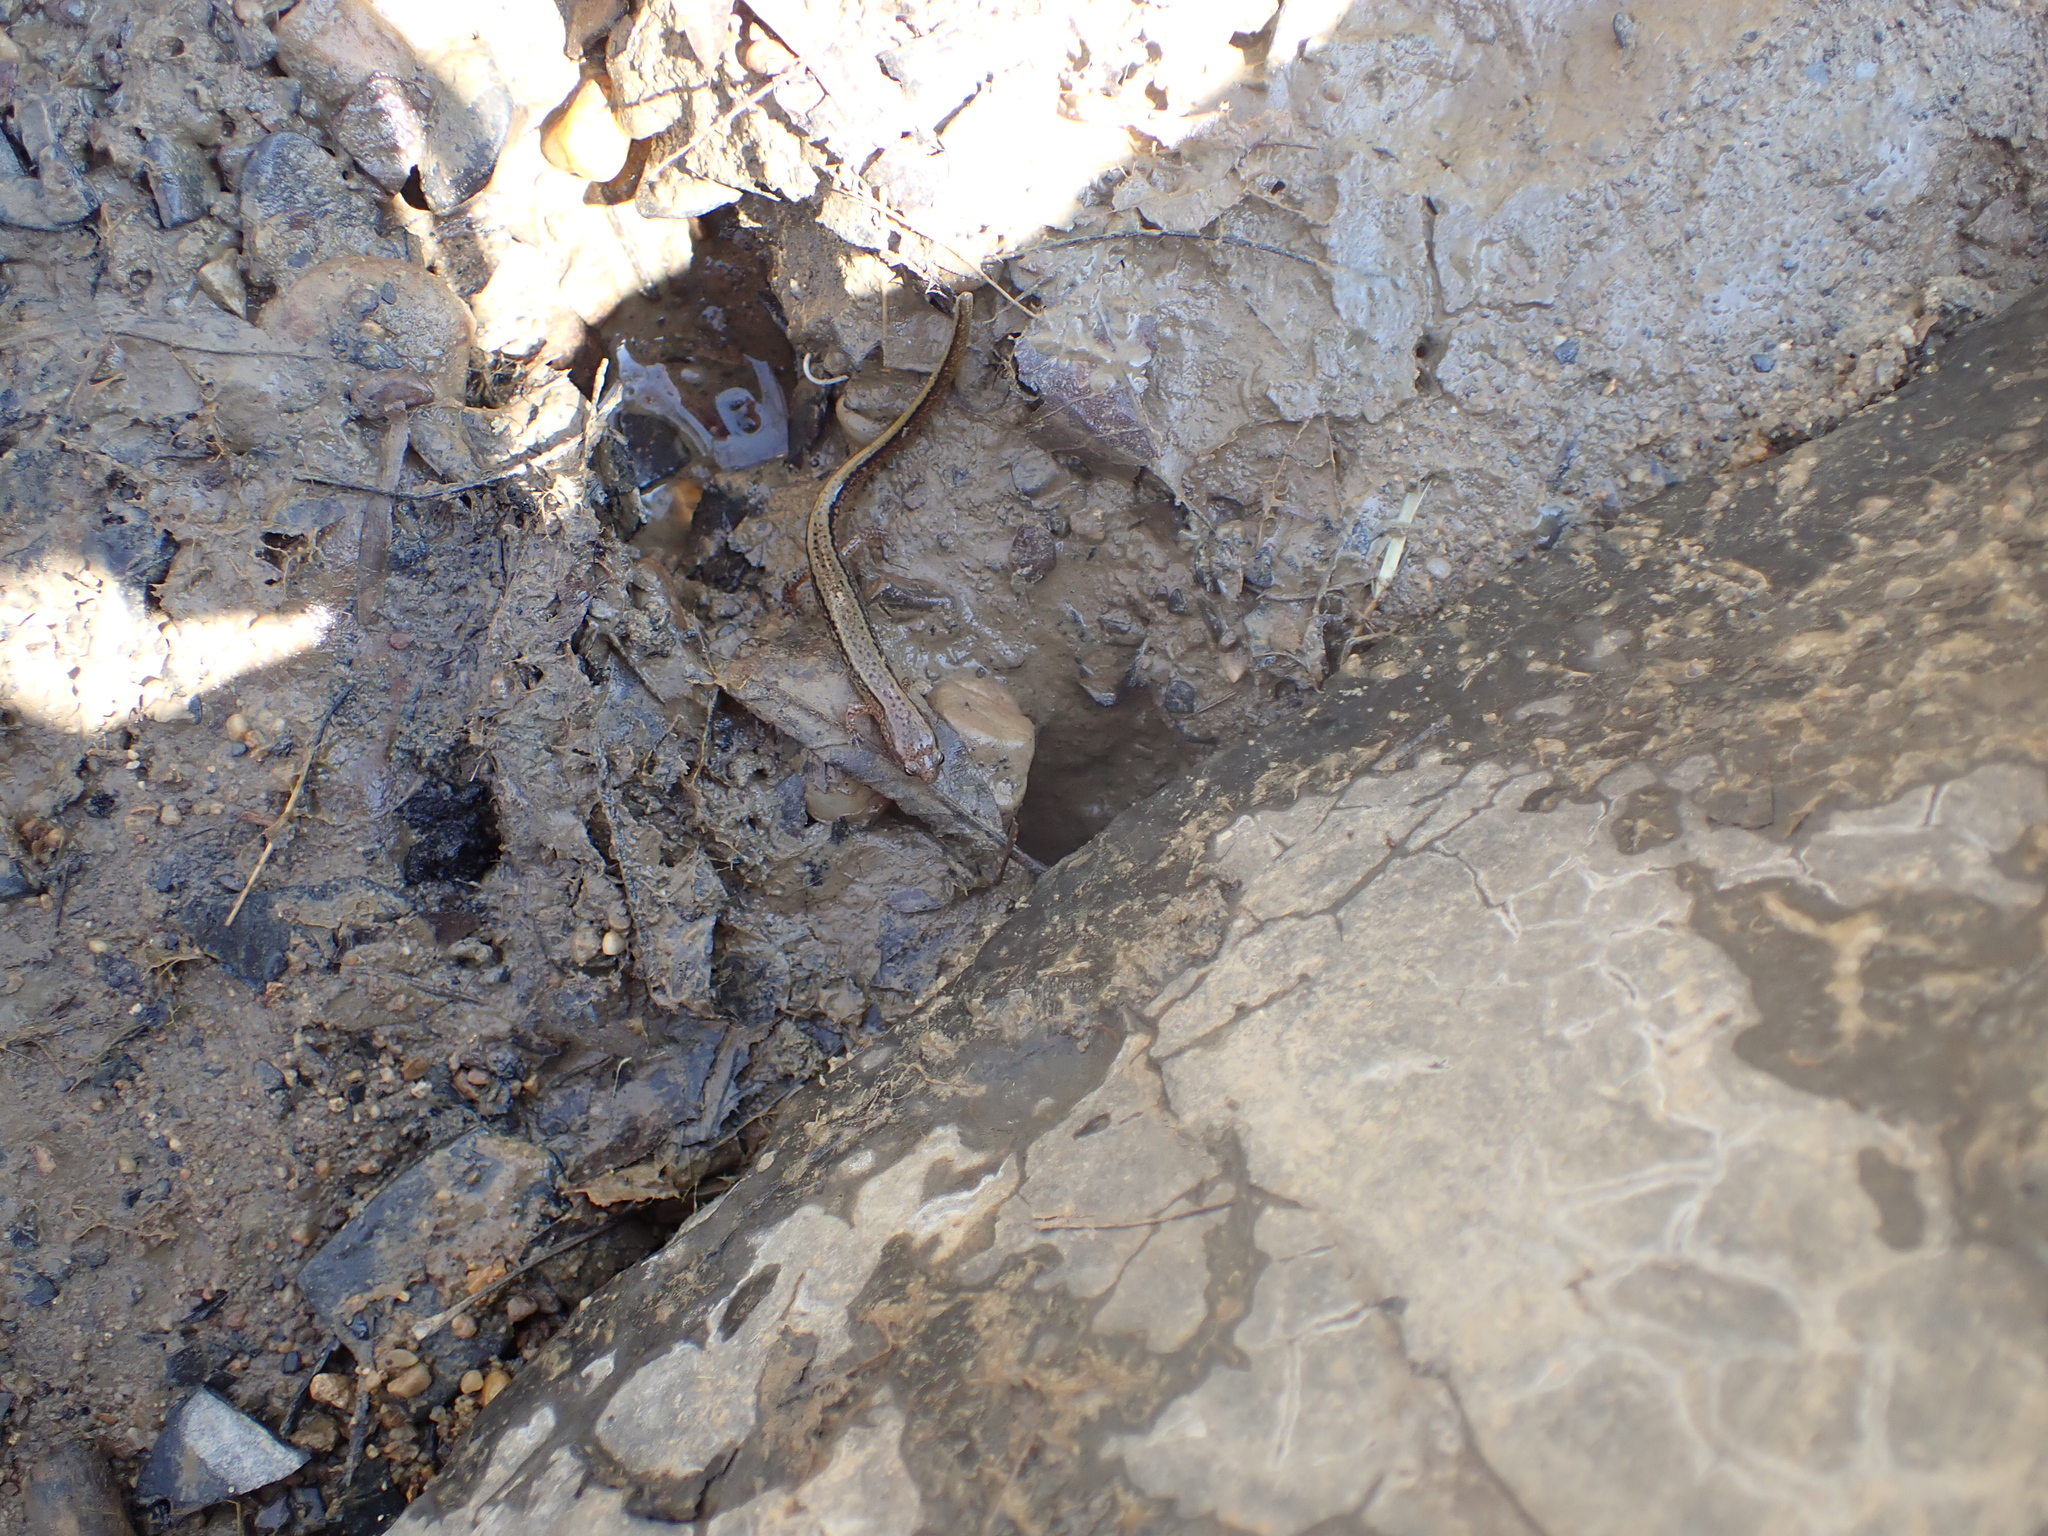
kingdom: Animalia
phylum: Chordata
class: Amphibia
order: Caudata
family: Plethodontidae
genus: Eurycea
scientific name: Eurycea cirrigera
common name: Southern two-lined salamander
